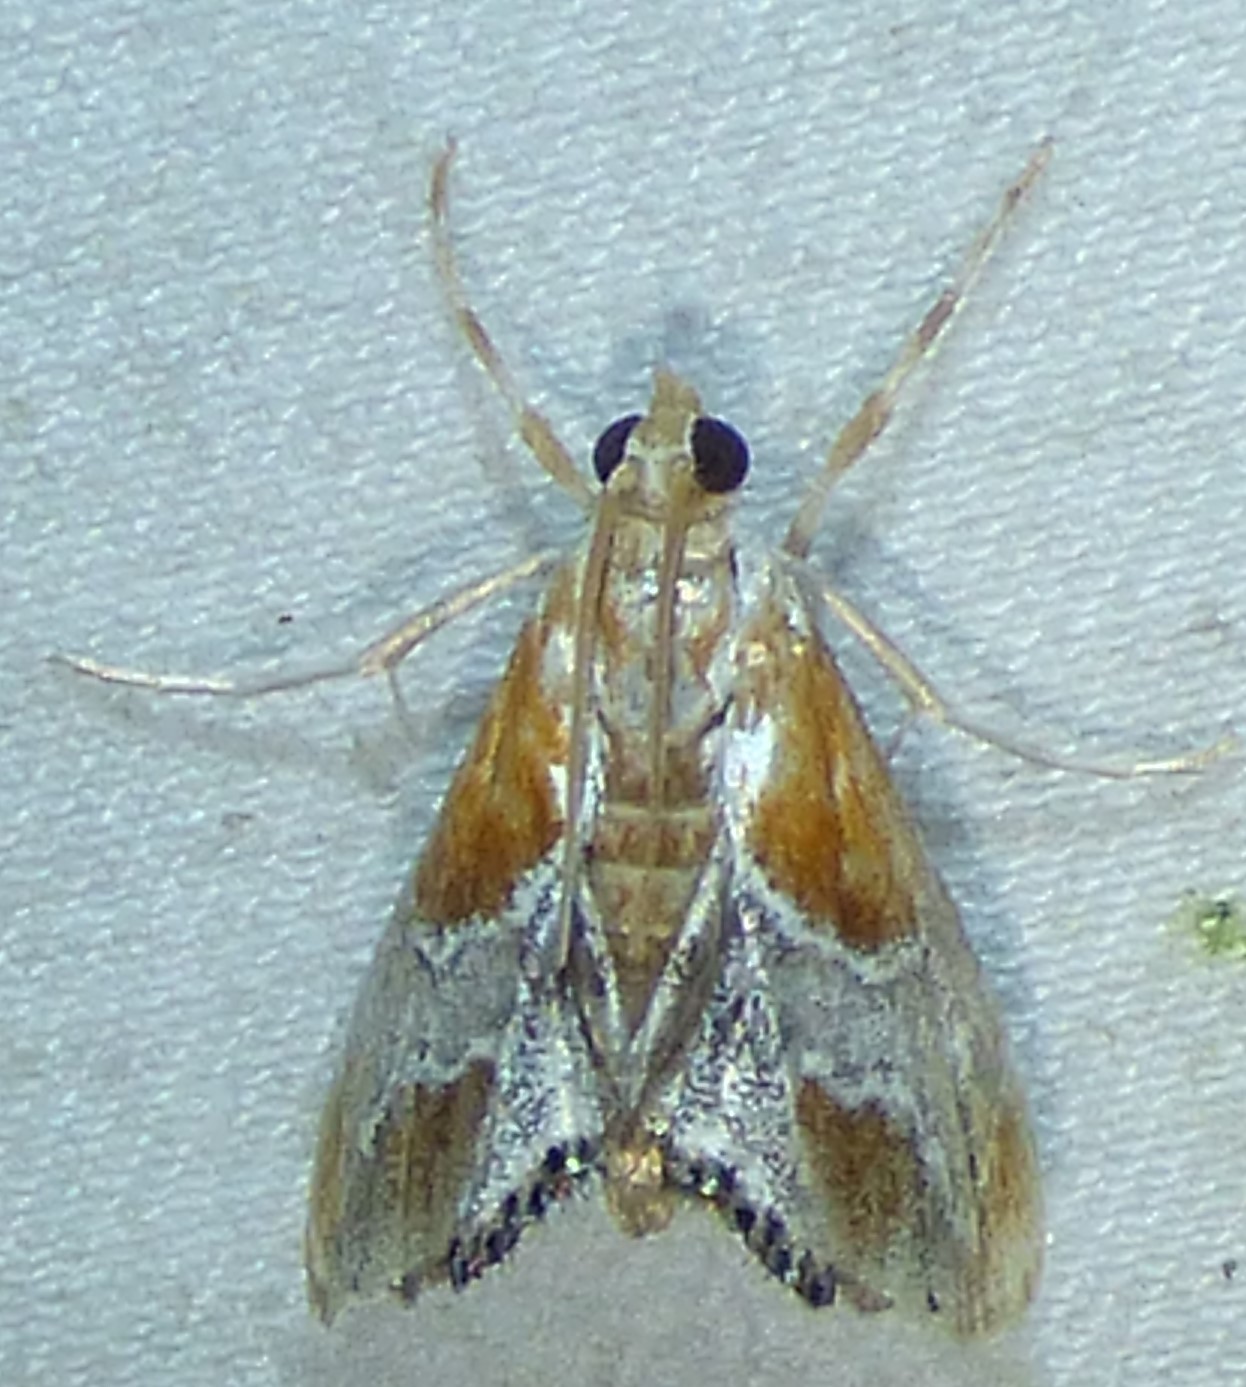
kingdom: Animalia
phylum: Arthropoda
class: Insecta
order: Lepidoptera
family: Crambidae
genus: Chalcoela
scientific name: Chalcoela pegasalis
